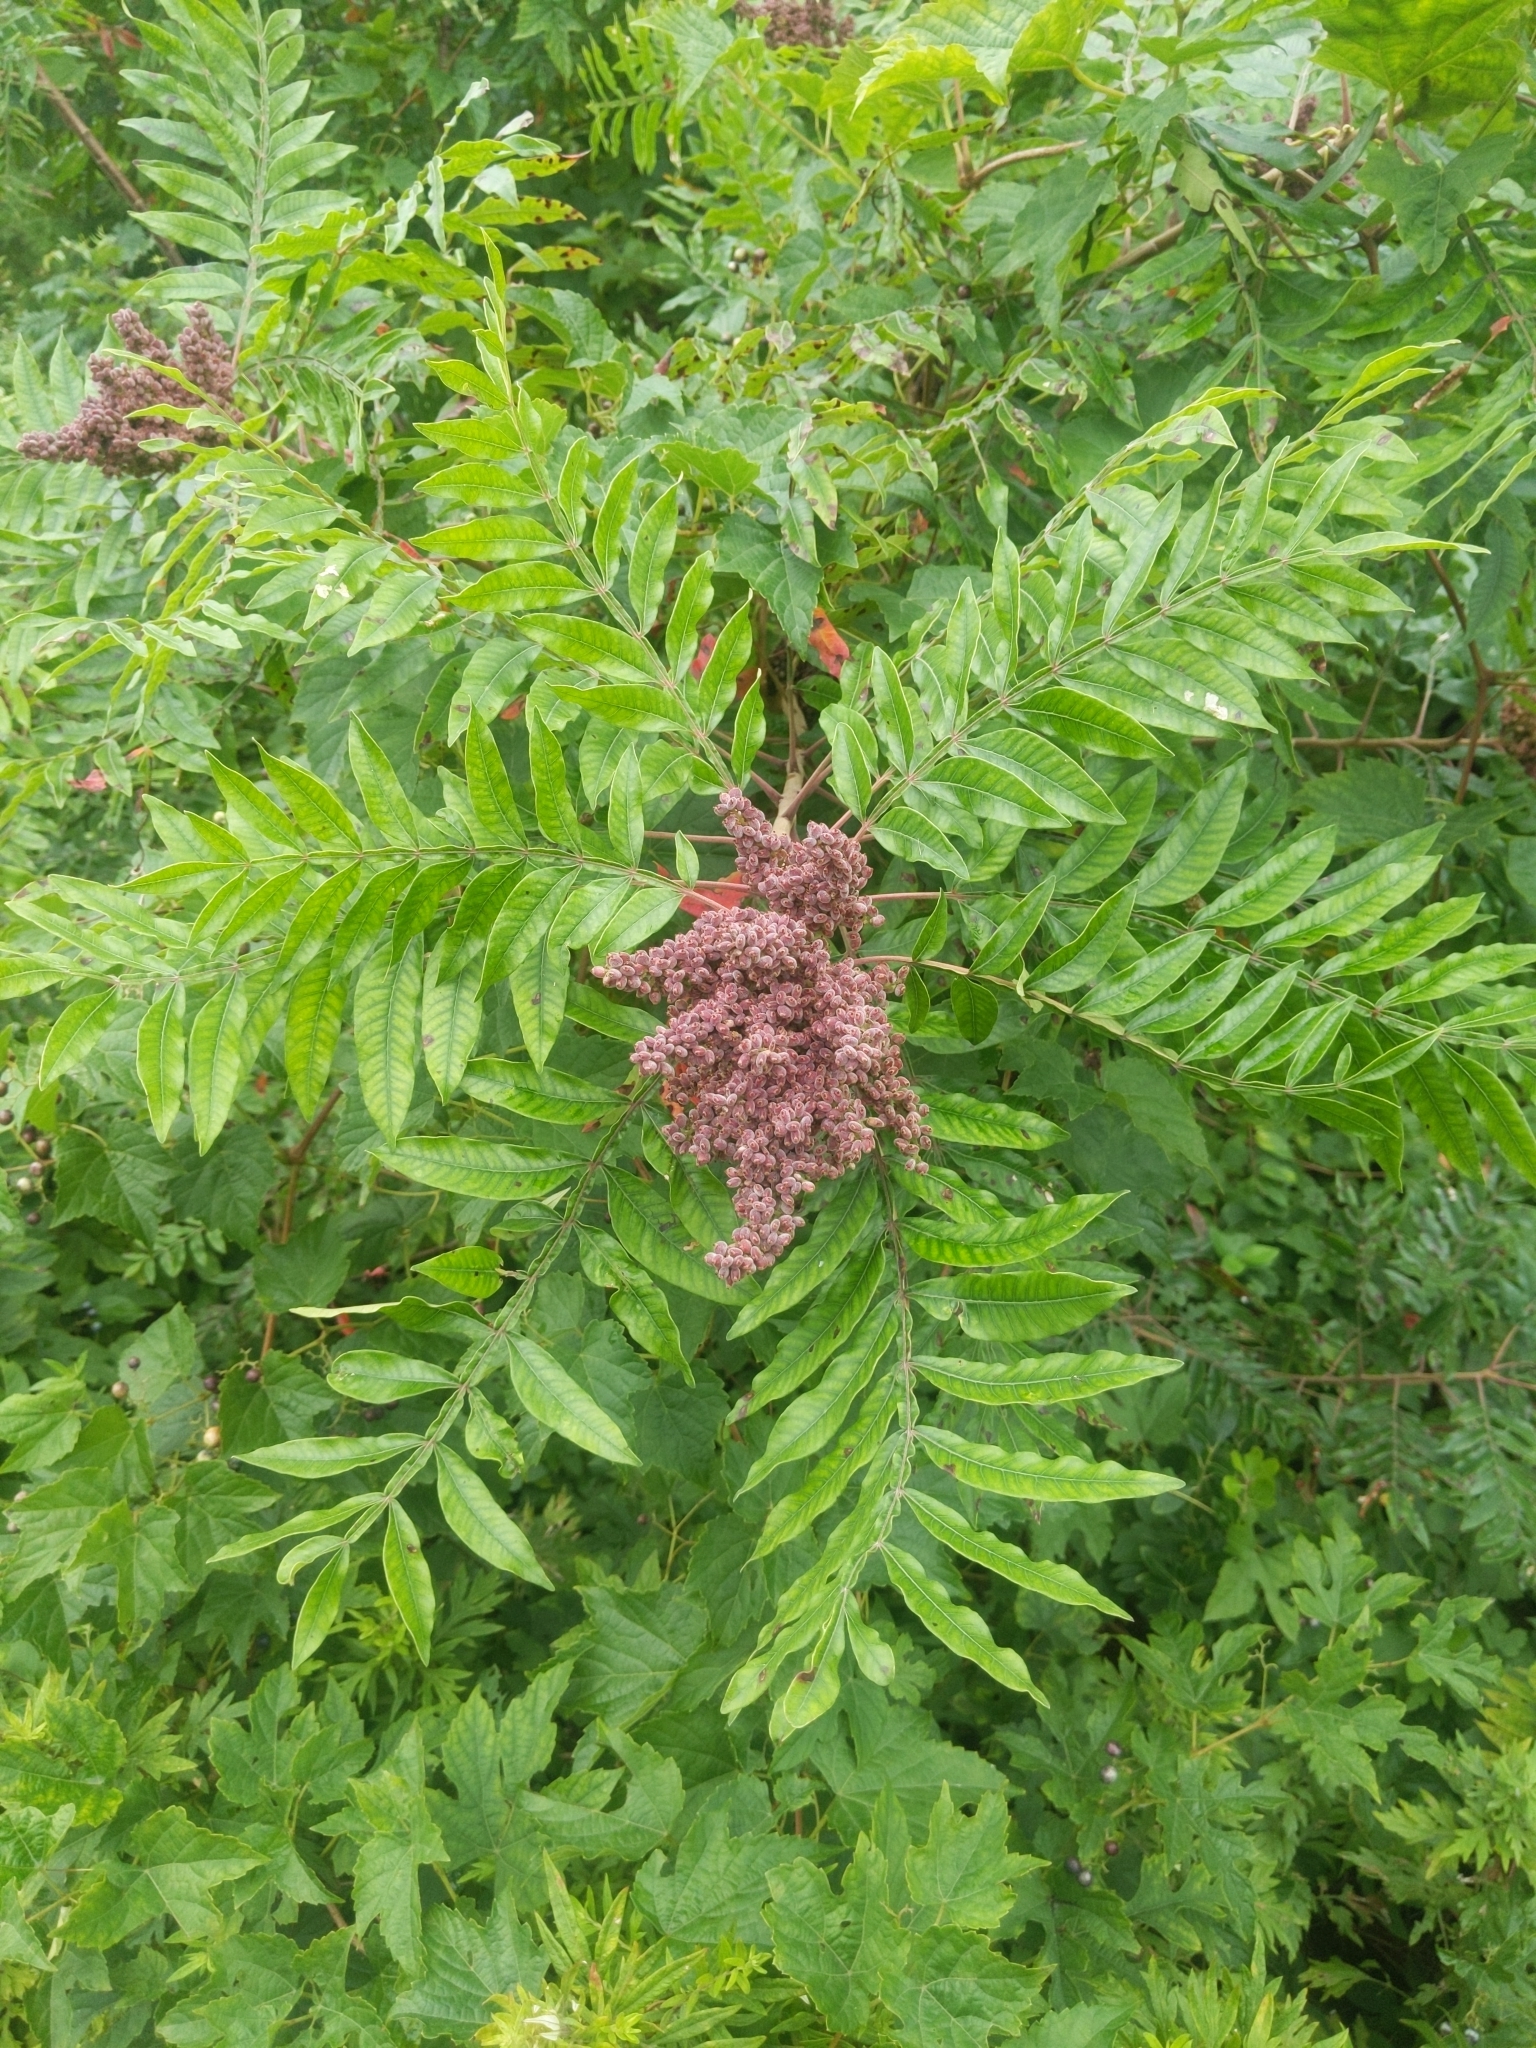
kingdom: Plantae
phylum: Tracheophyta
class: Magnoliopsida
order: Sapindales
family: Anacardiaceae
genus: Rhus
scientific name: Rhus copallina
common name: Shining sumac
